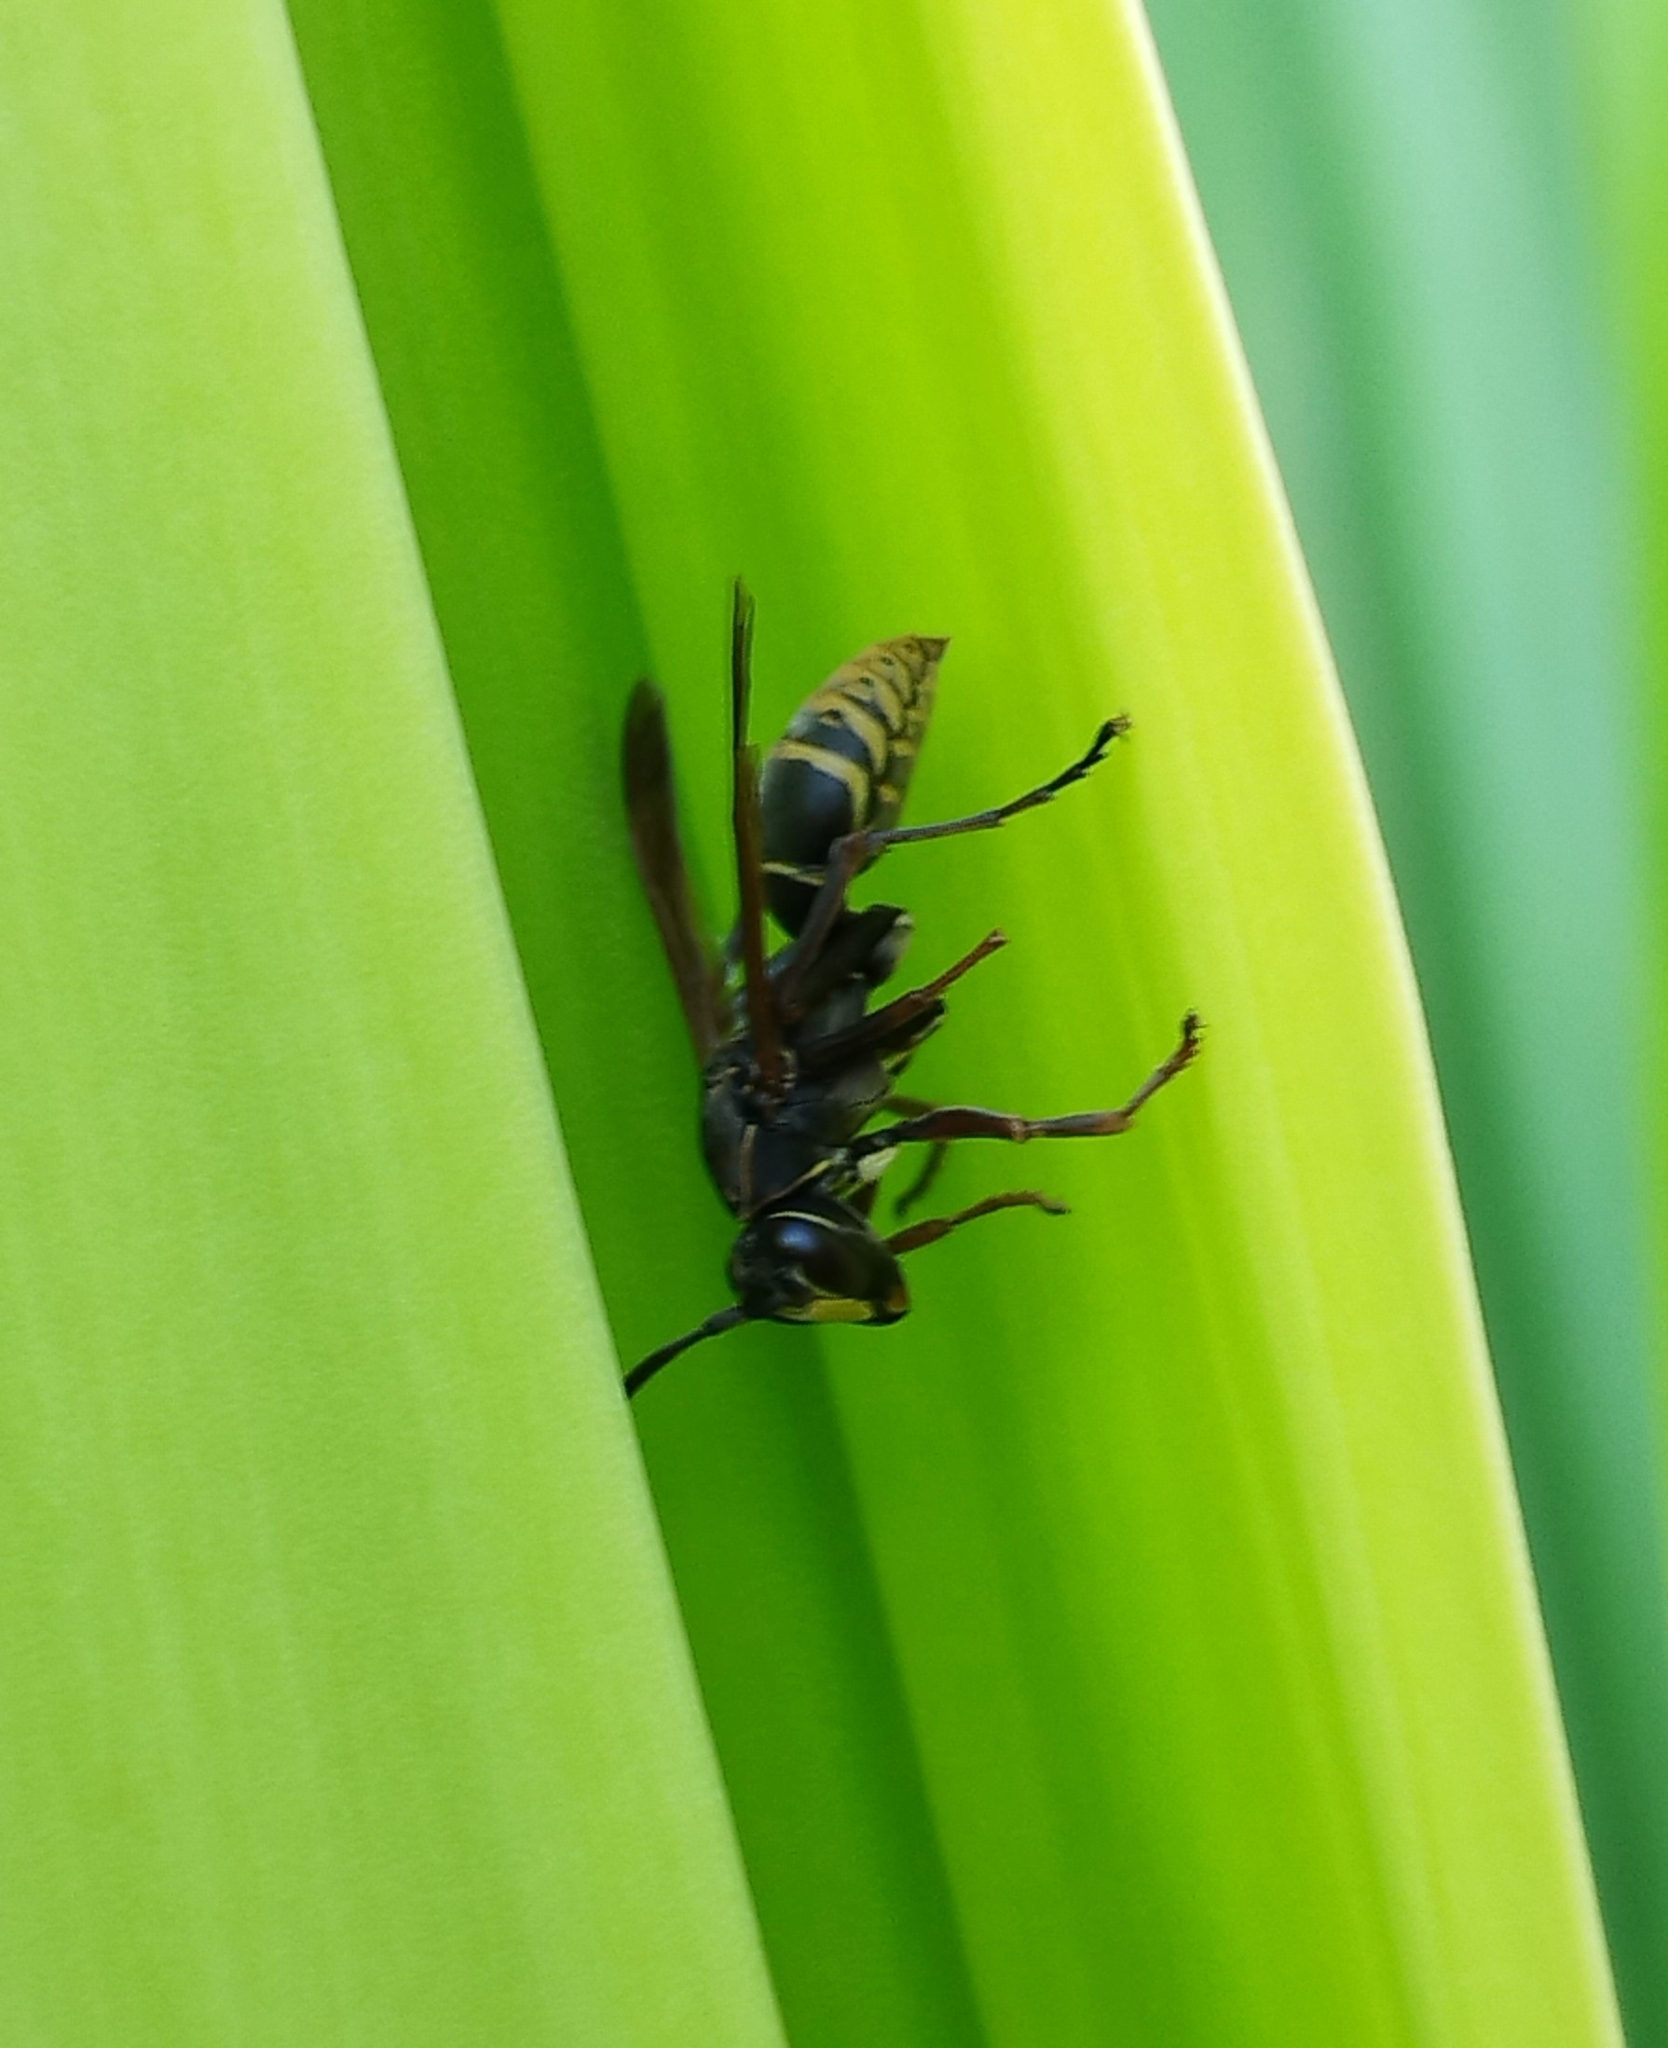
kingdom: Animalia
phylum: Arthropoda
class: Insecta
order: Hymenoptera
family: Eumenidae
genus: Polistes
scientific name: Polistes cinerascens
